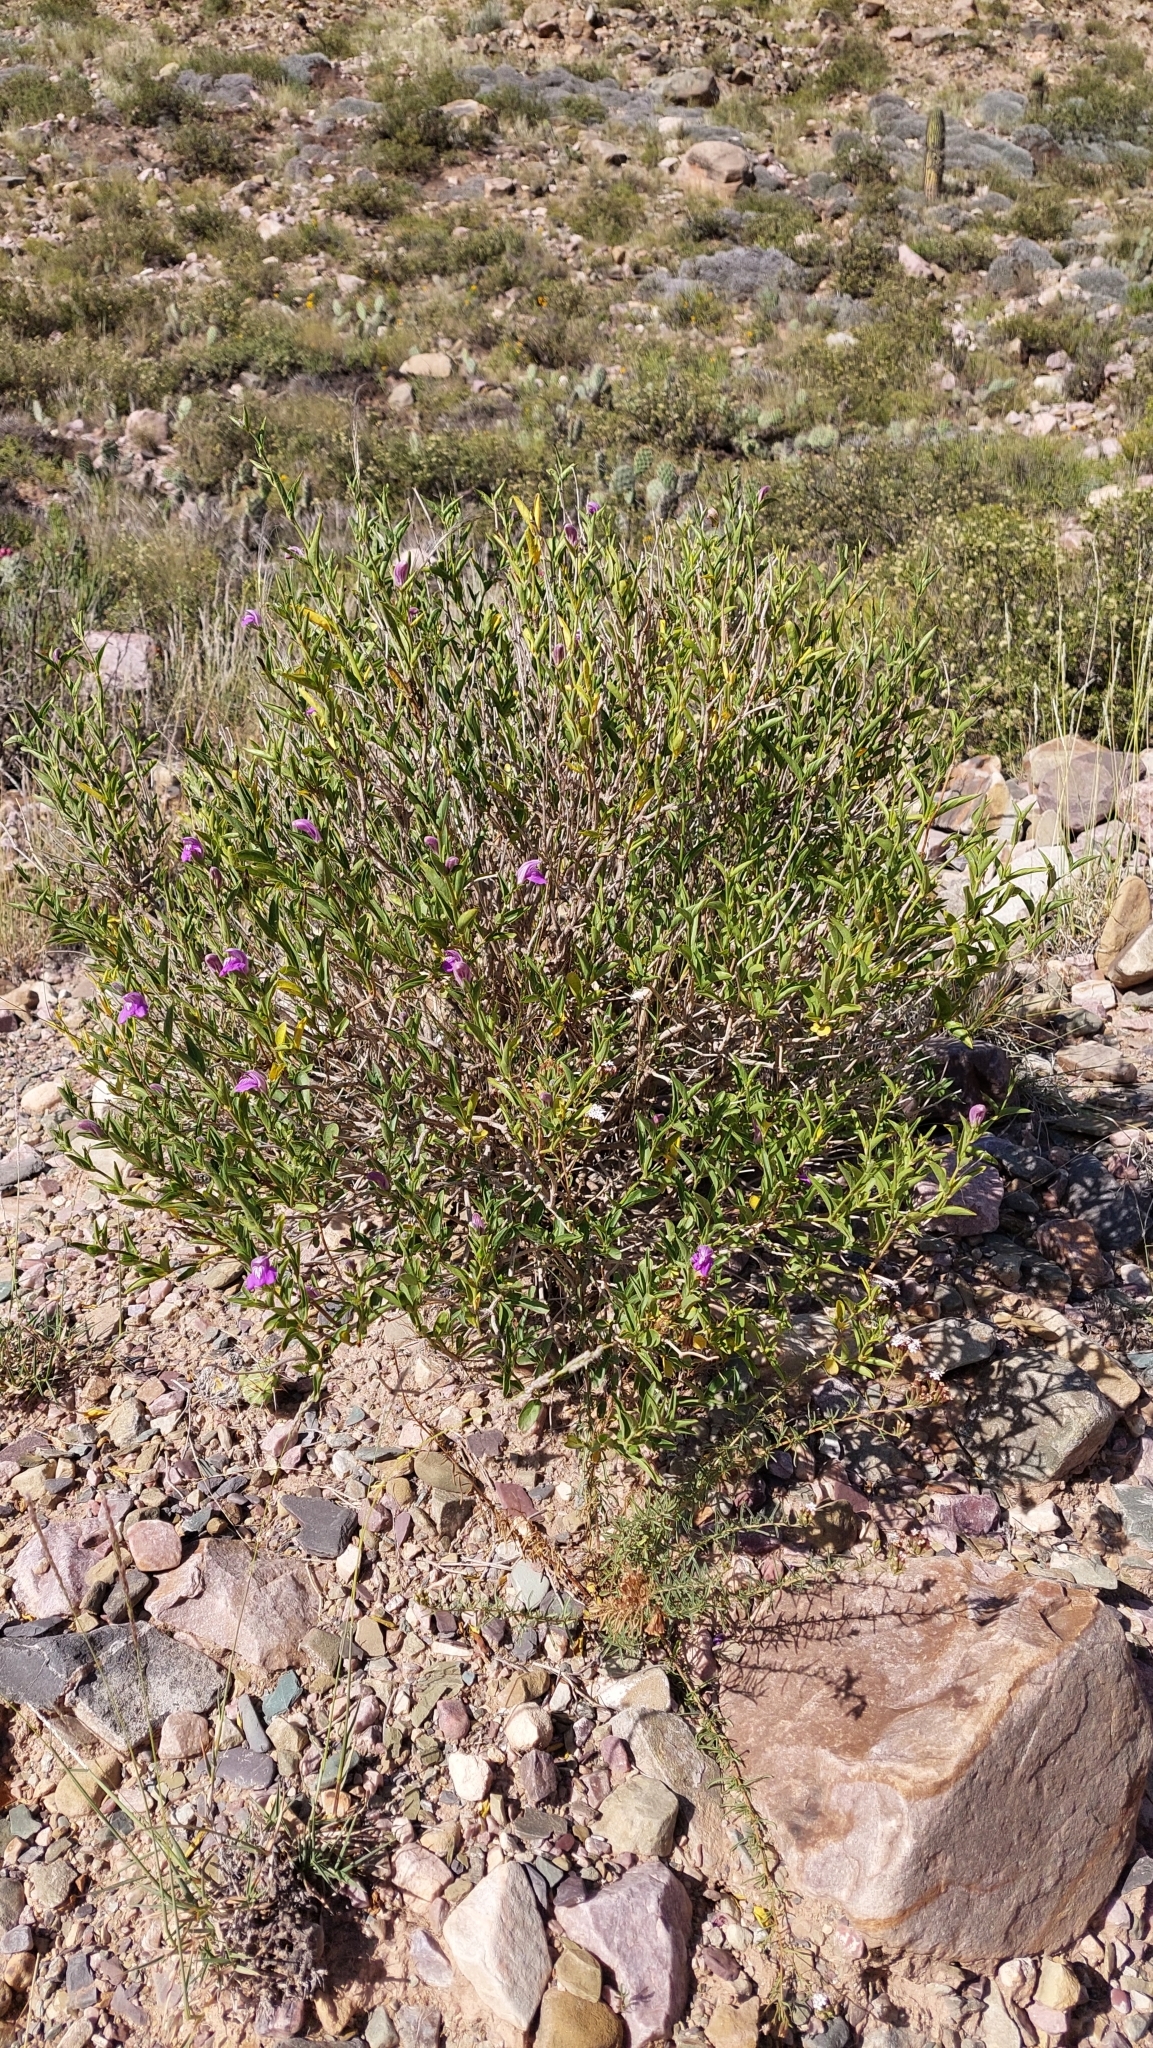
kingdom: Plantae
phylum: Tracheophyta
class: Magnoliopsida
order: Lamiales
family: Acanthaceae
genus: Poikilacanthus
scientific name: Poikilacanthus tweedianus
